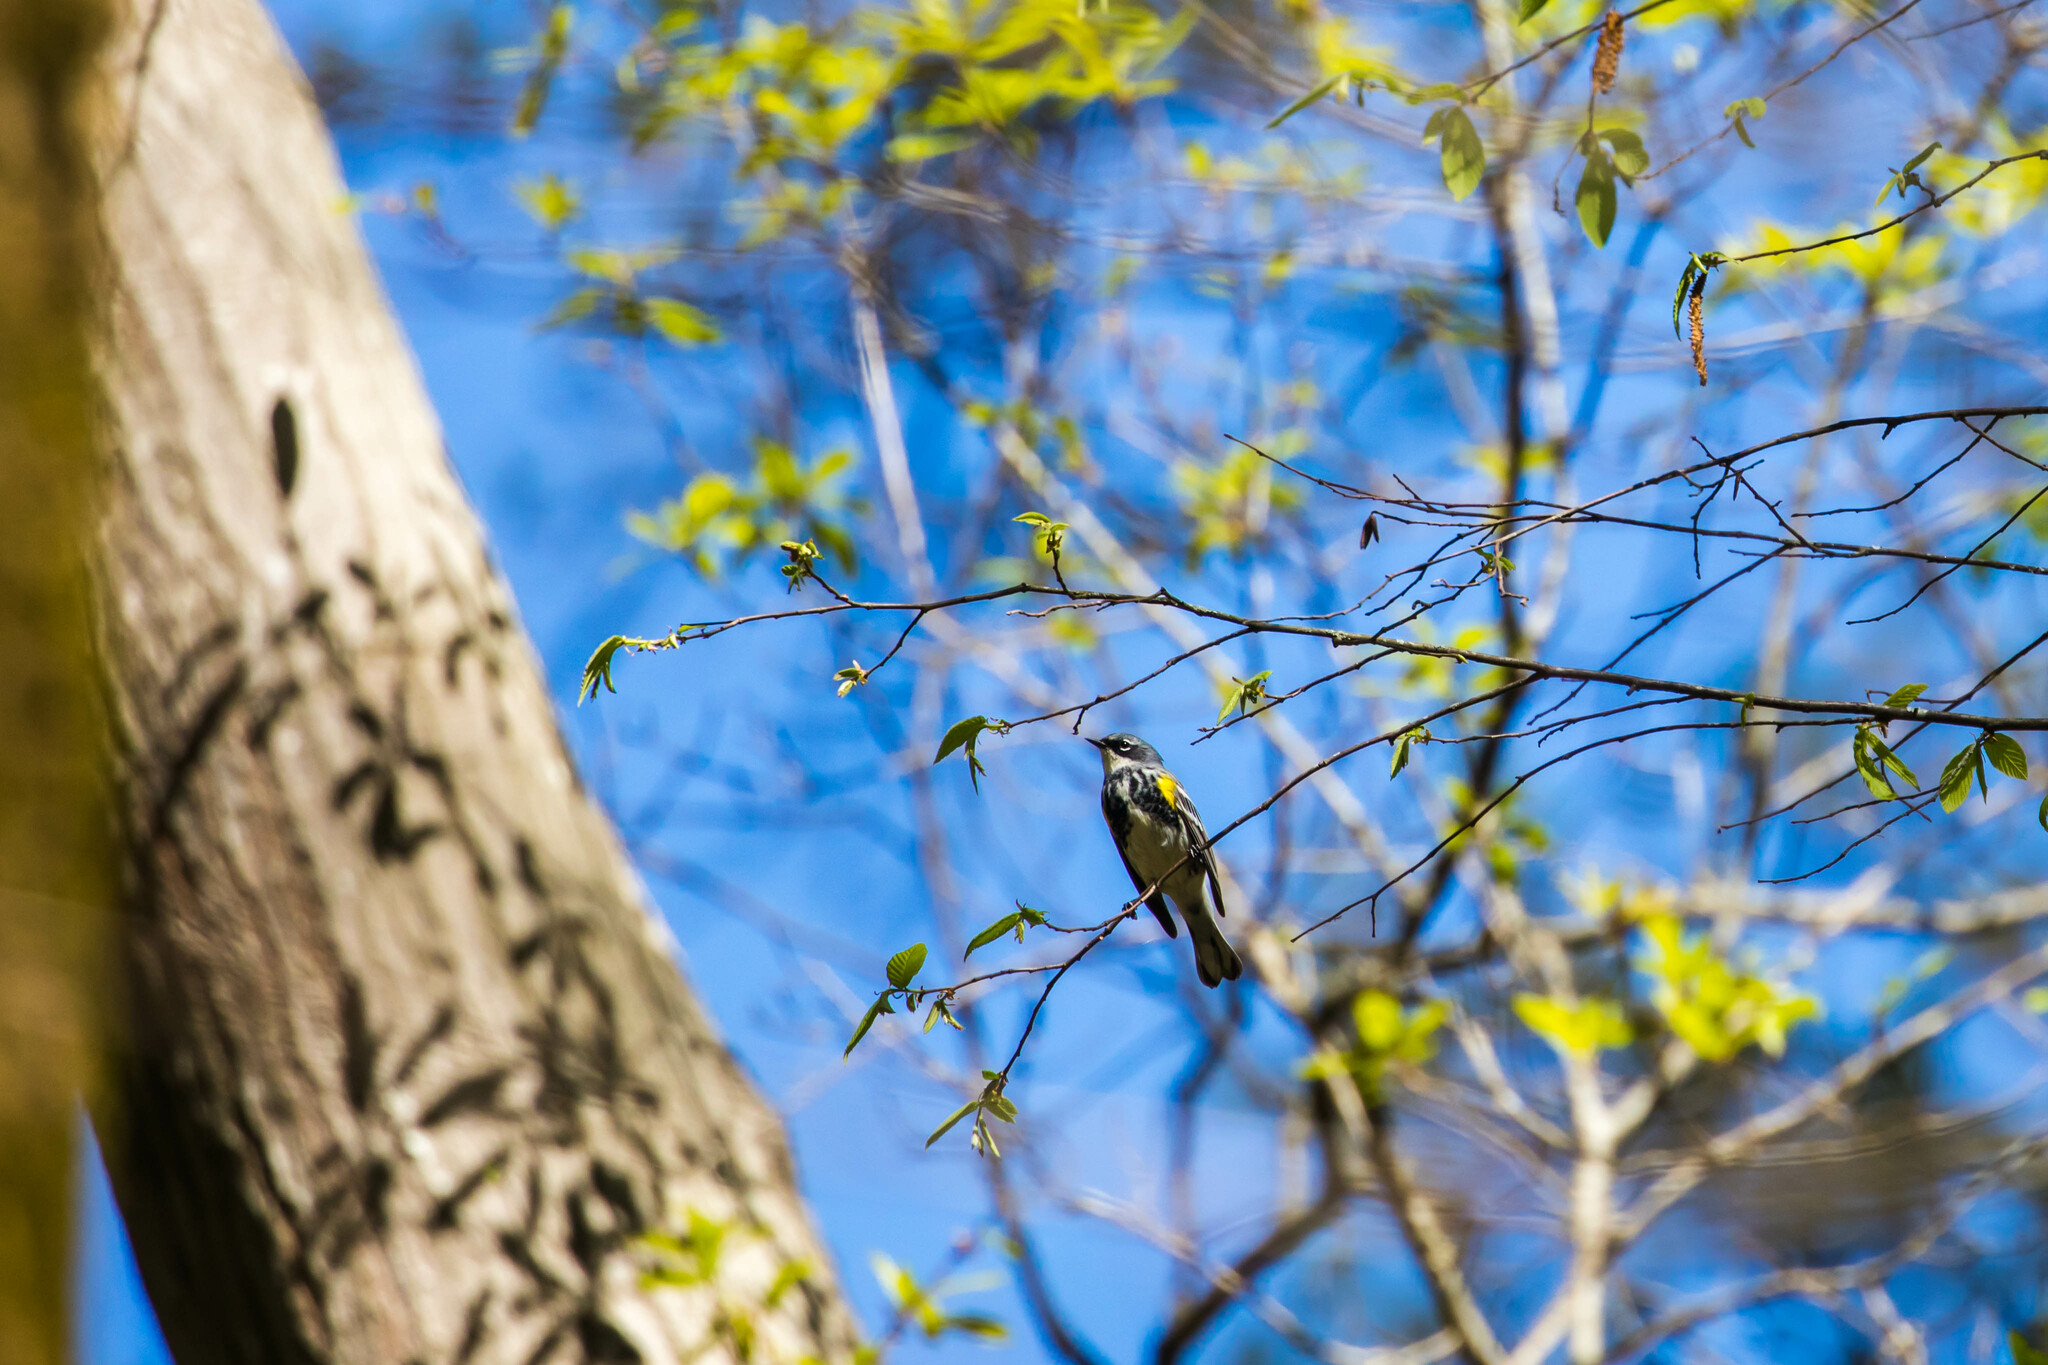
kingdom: Animalia
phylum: Chordata
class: Aves
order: Passeriformes
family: Parulidae
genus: Setophaga
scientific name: Setophaga coronata
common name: Myrtle warbler
